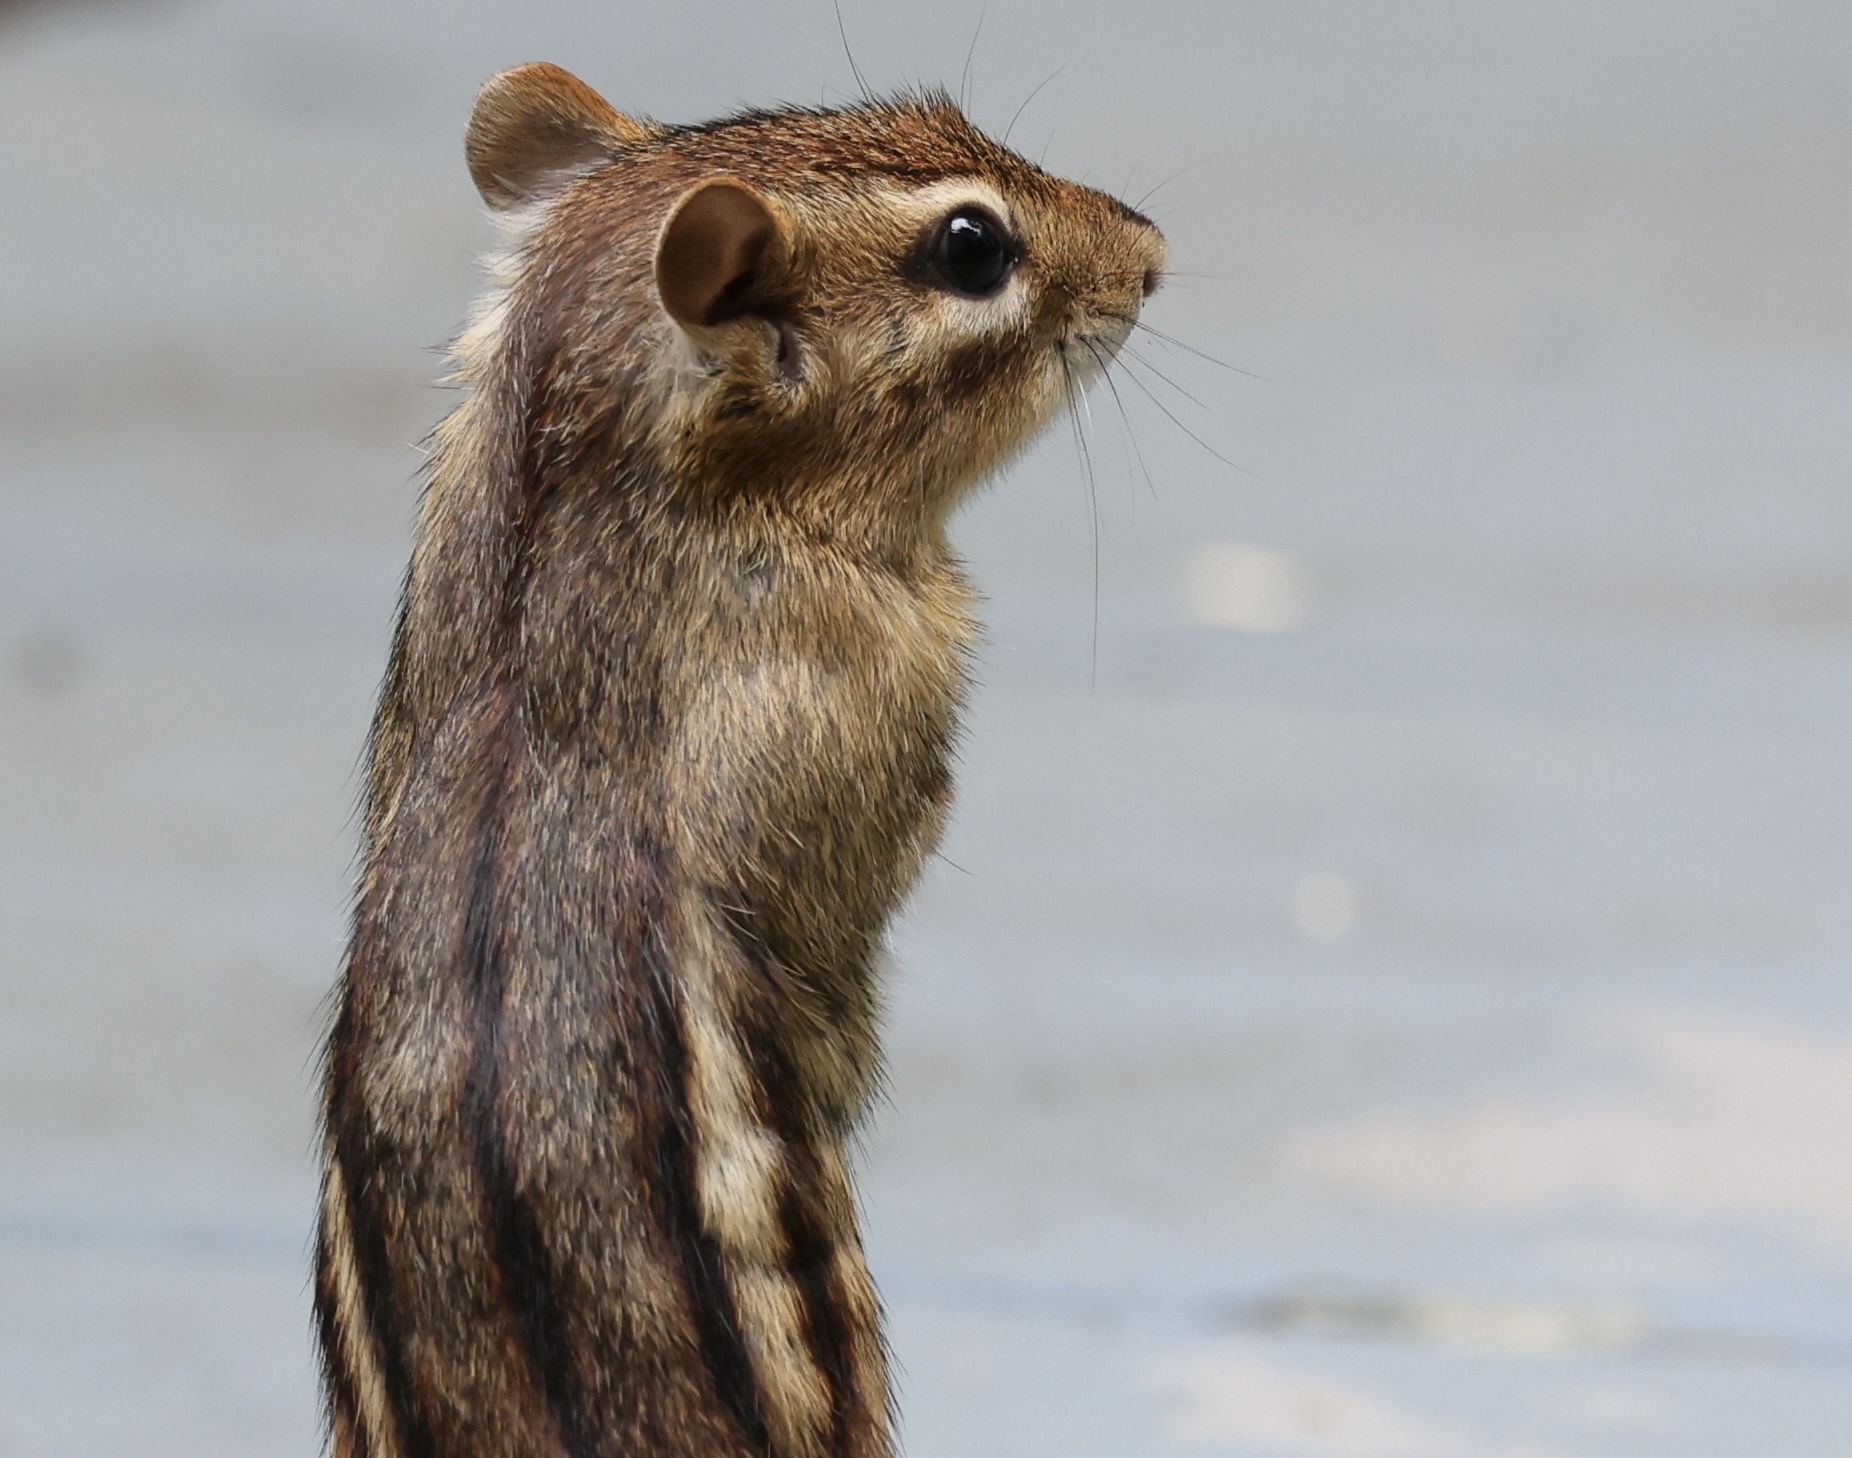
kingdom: Animalia
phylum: Chordata
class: Mammalia
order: Rodentia
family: Sciuridae
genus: Tamias
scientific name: Tamias striatus
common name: Eastern chipmunk
